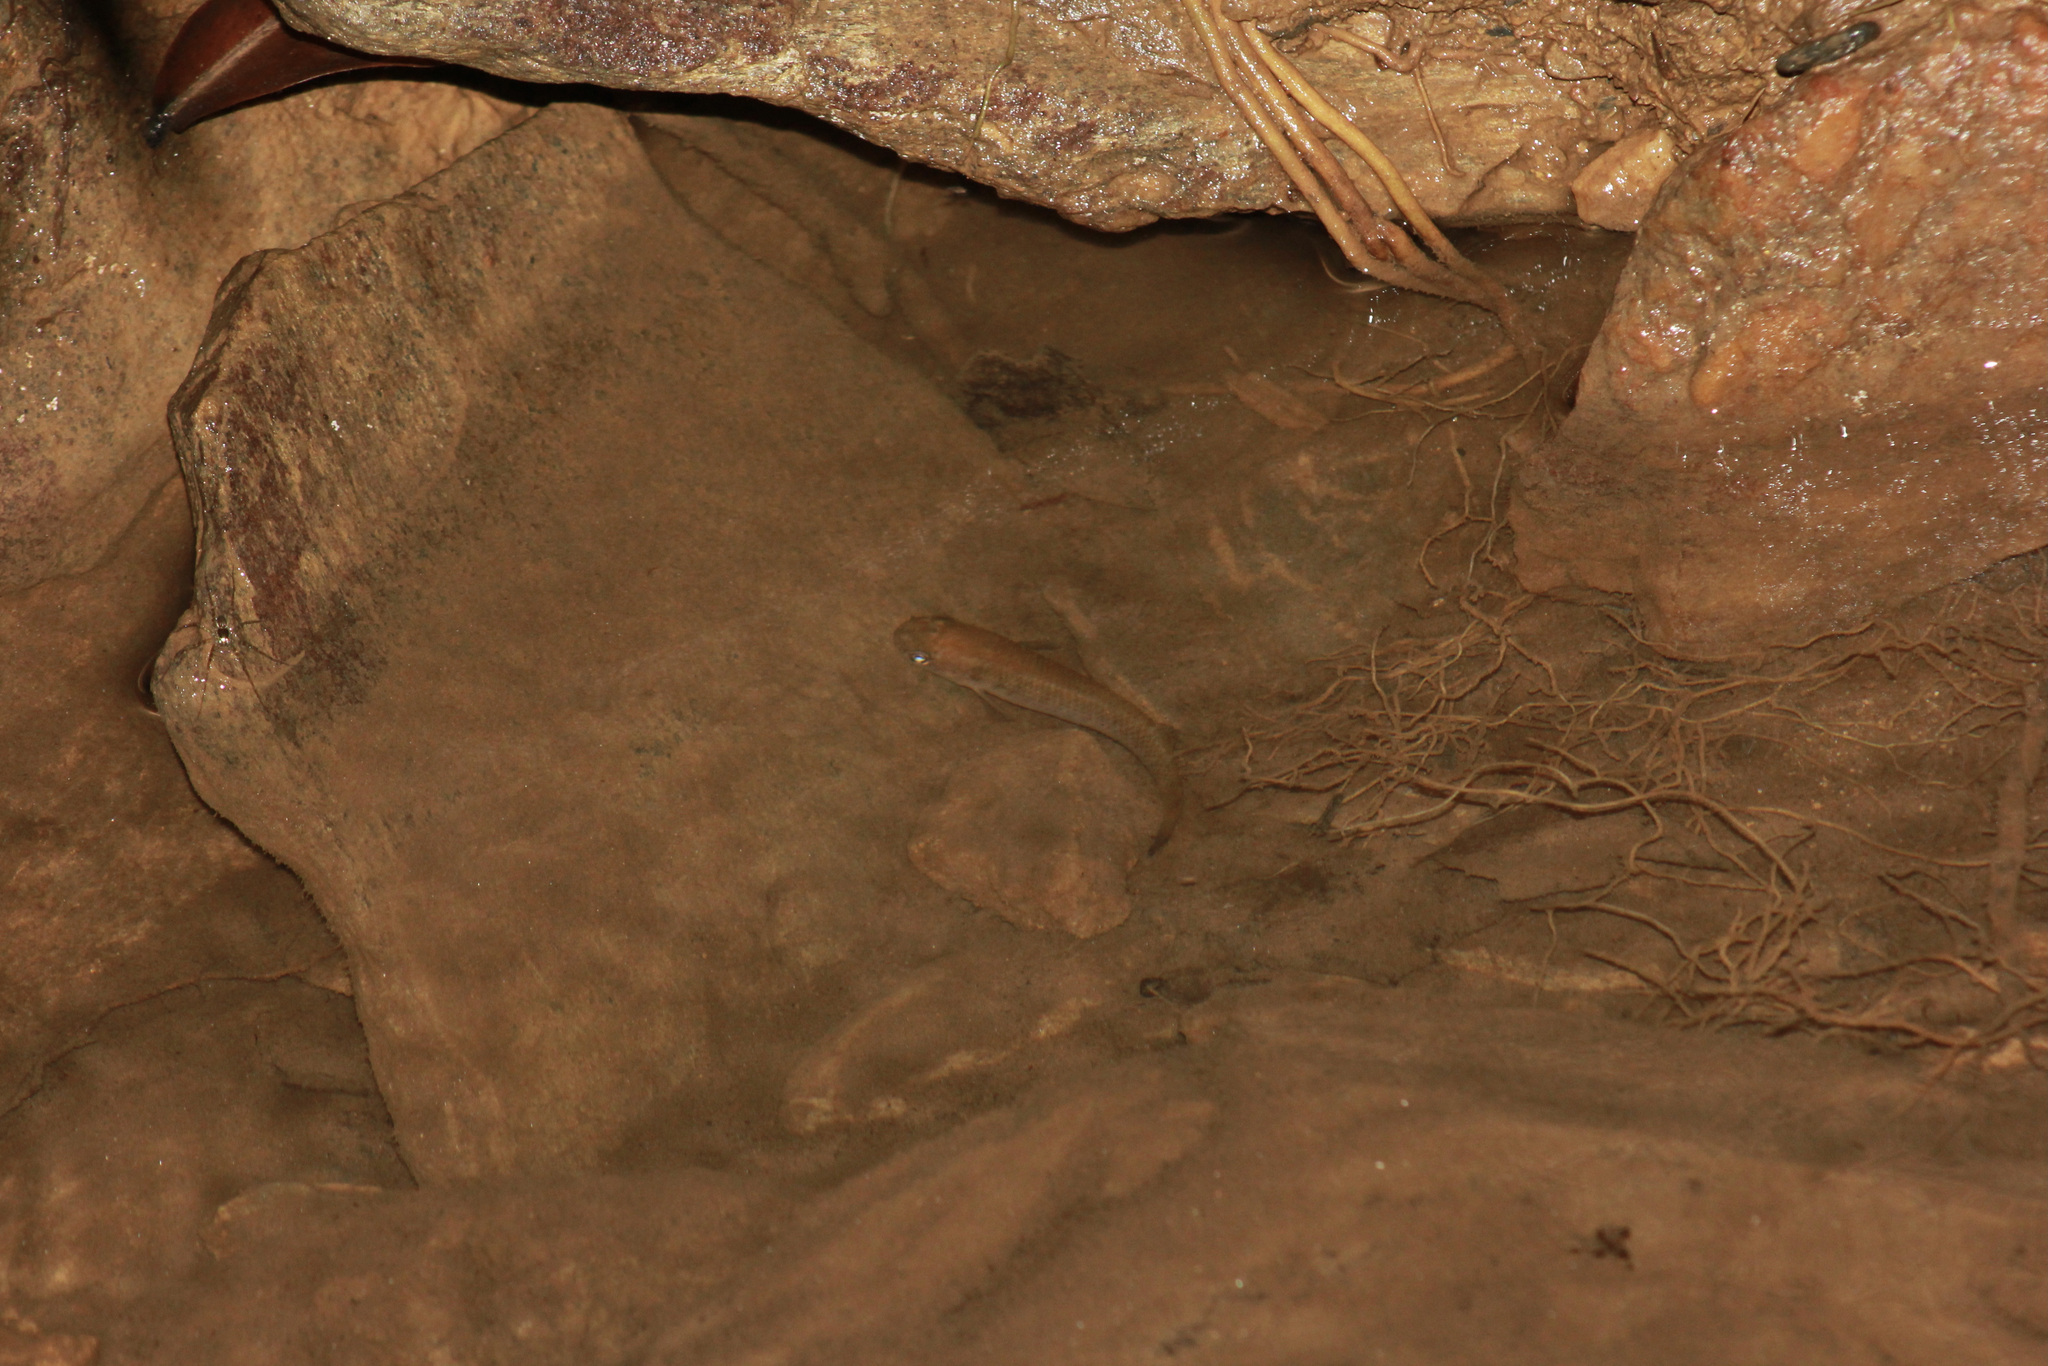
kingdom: Animalia
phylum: Chordata
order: Cyprinodontiformes
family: Rivulidae
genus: Anablepsoides
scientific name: Anablepsoides hartii
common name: Giant rivulus
